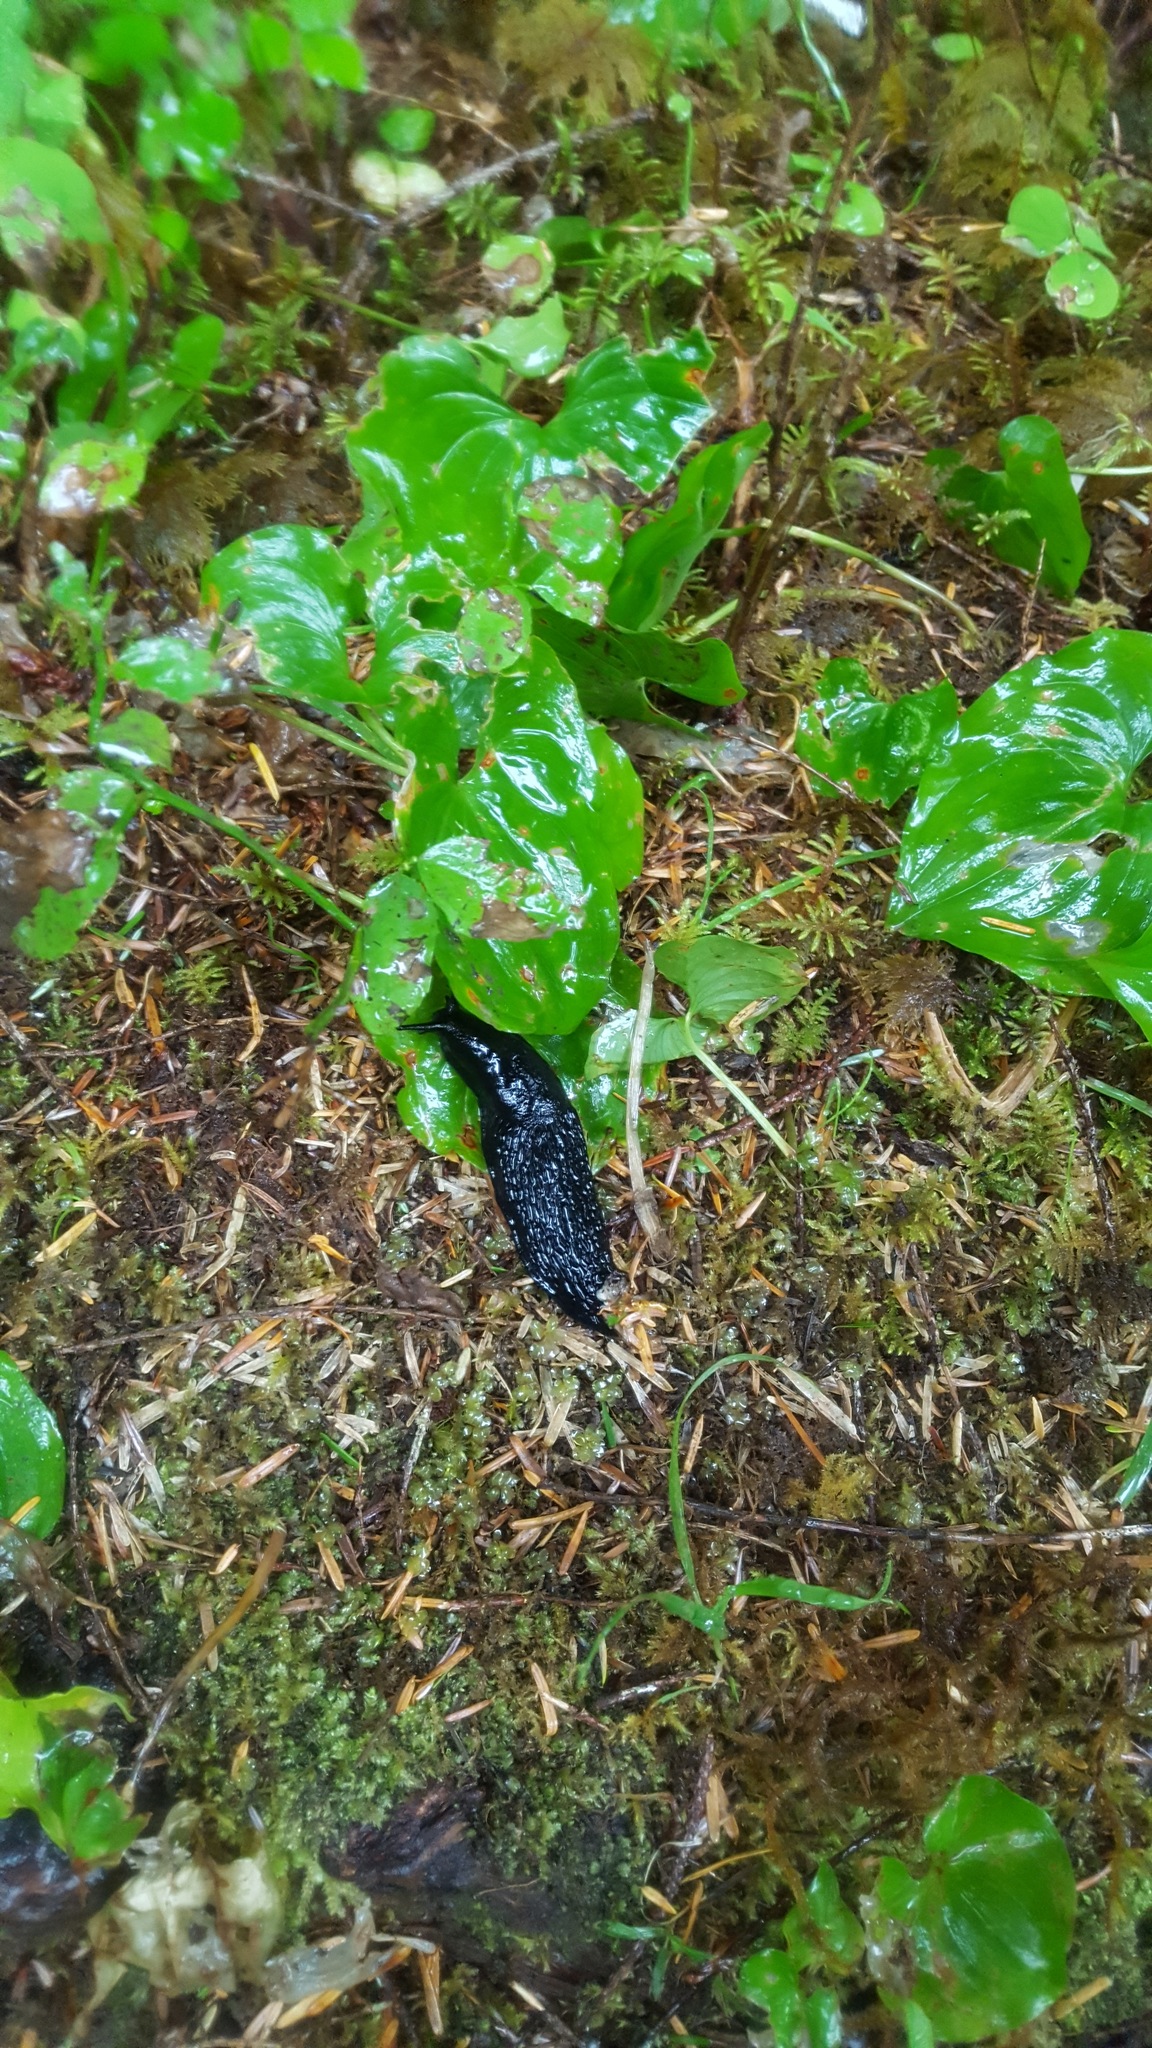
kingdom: Animalia
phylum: Mollusca
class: Gastropoda
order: Stylommatophora
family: Arionidae
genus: Arion
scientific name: Arion
